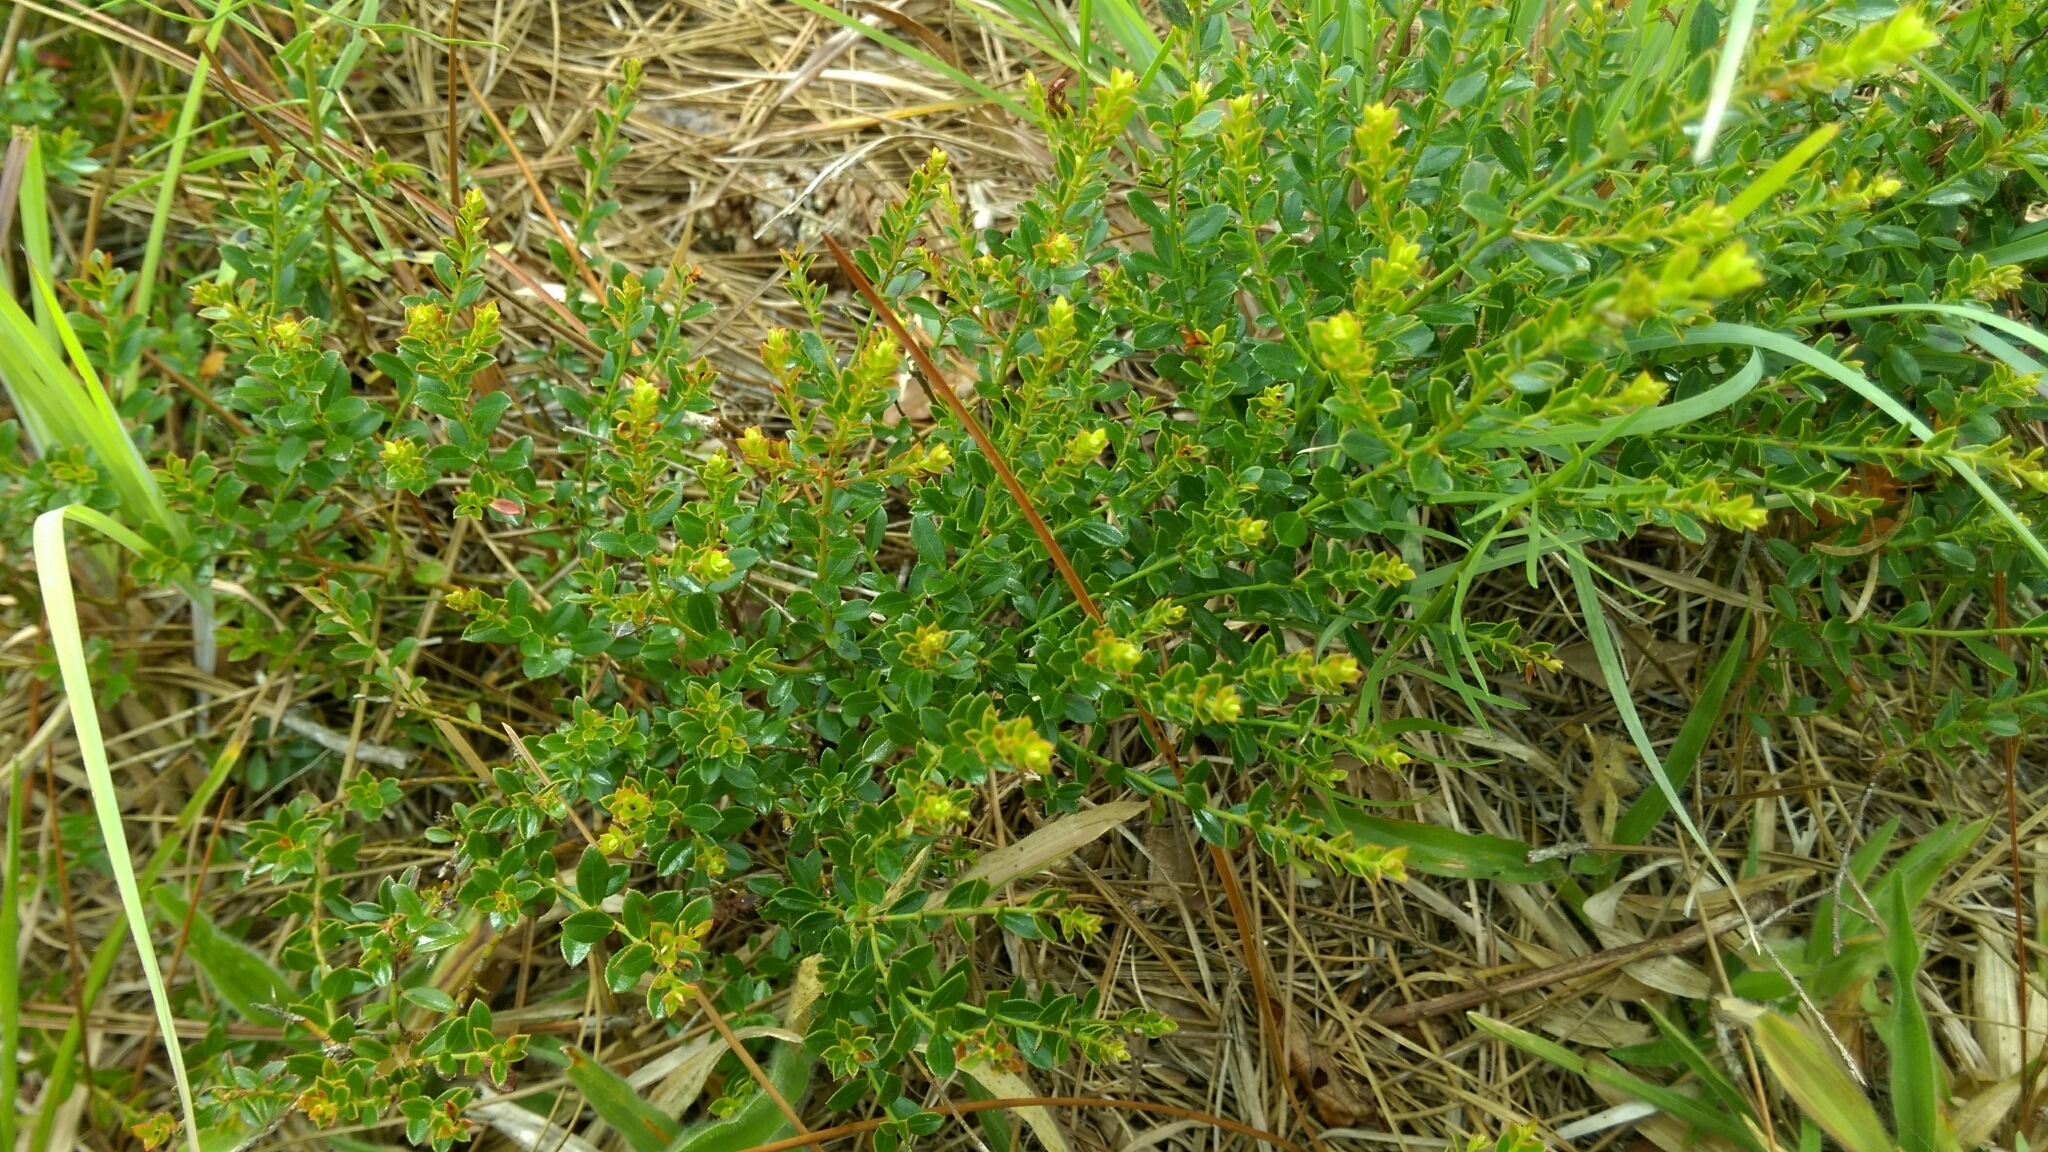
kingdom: Plantae
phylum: Tracheophyta
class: Magnoliopsida
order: Ericales
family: Ericaceae
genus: Vaccinium
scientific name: Vaccinium myrsinites
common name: Evergreen blueberry
